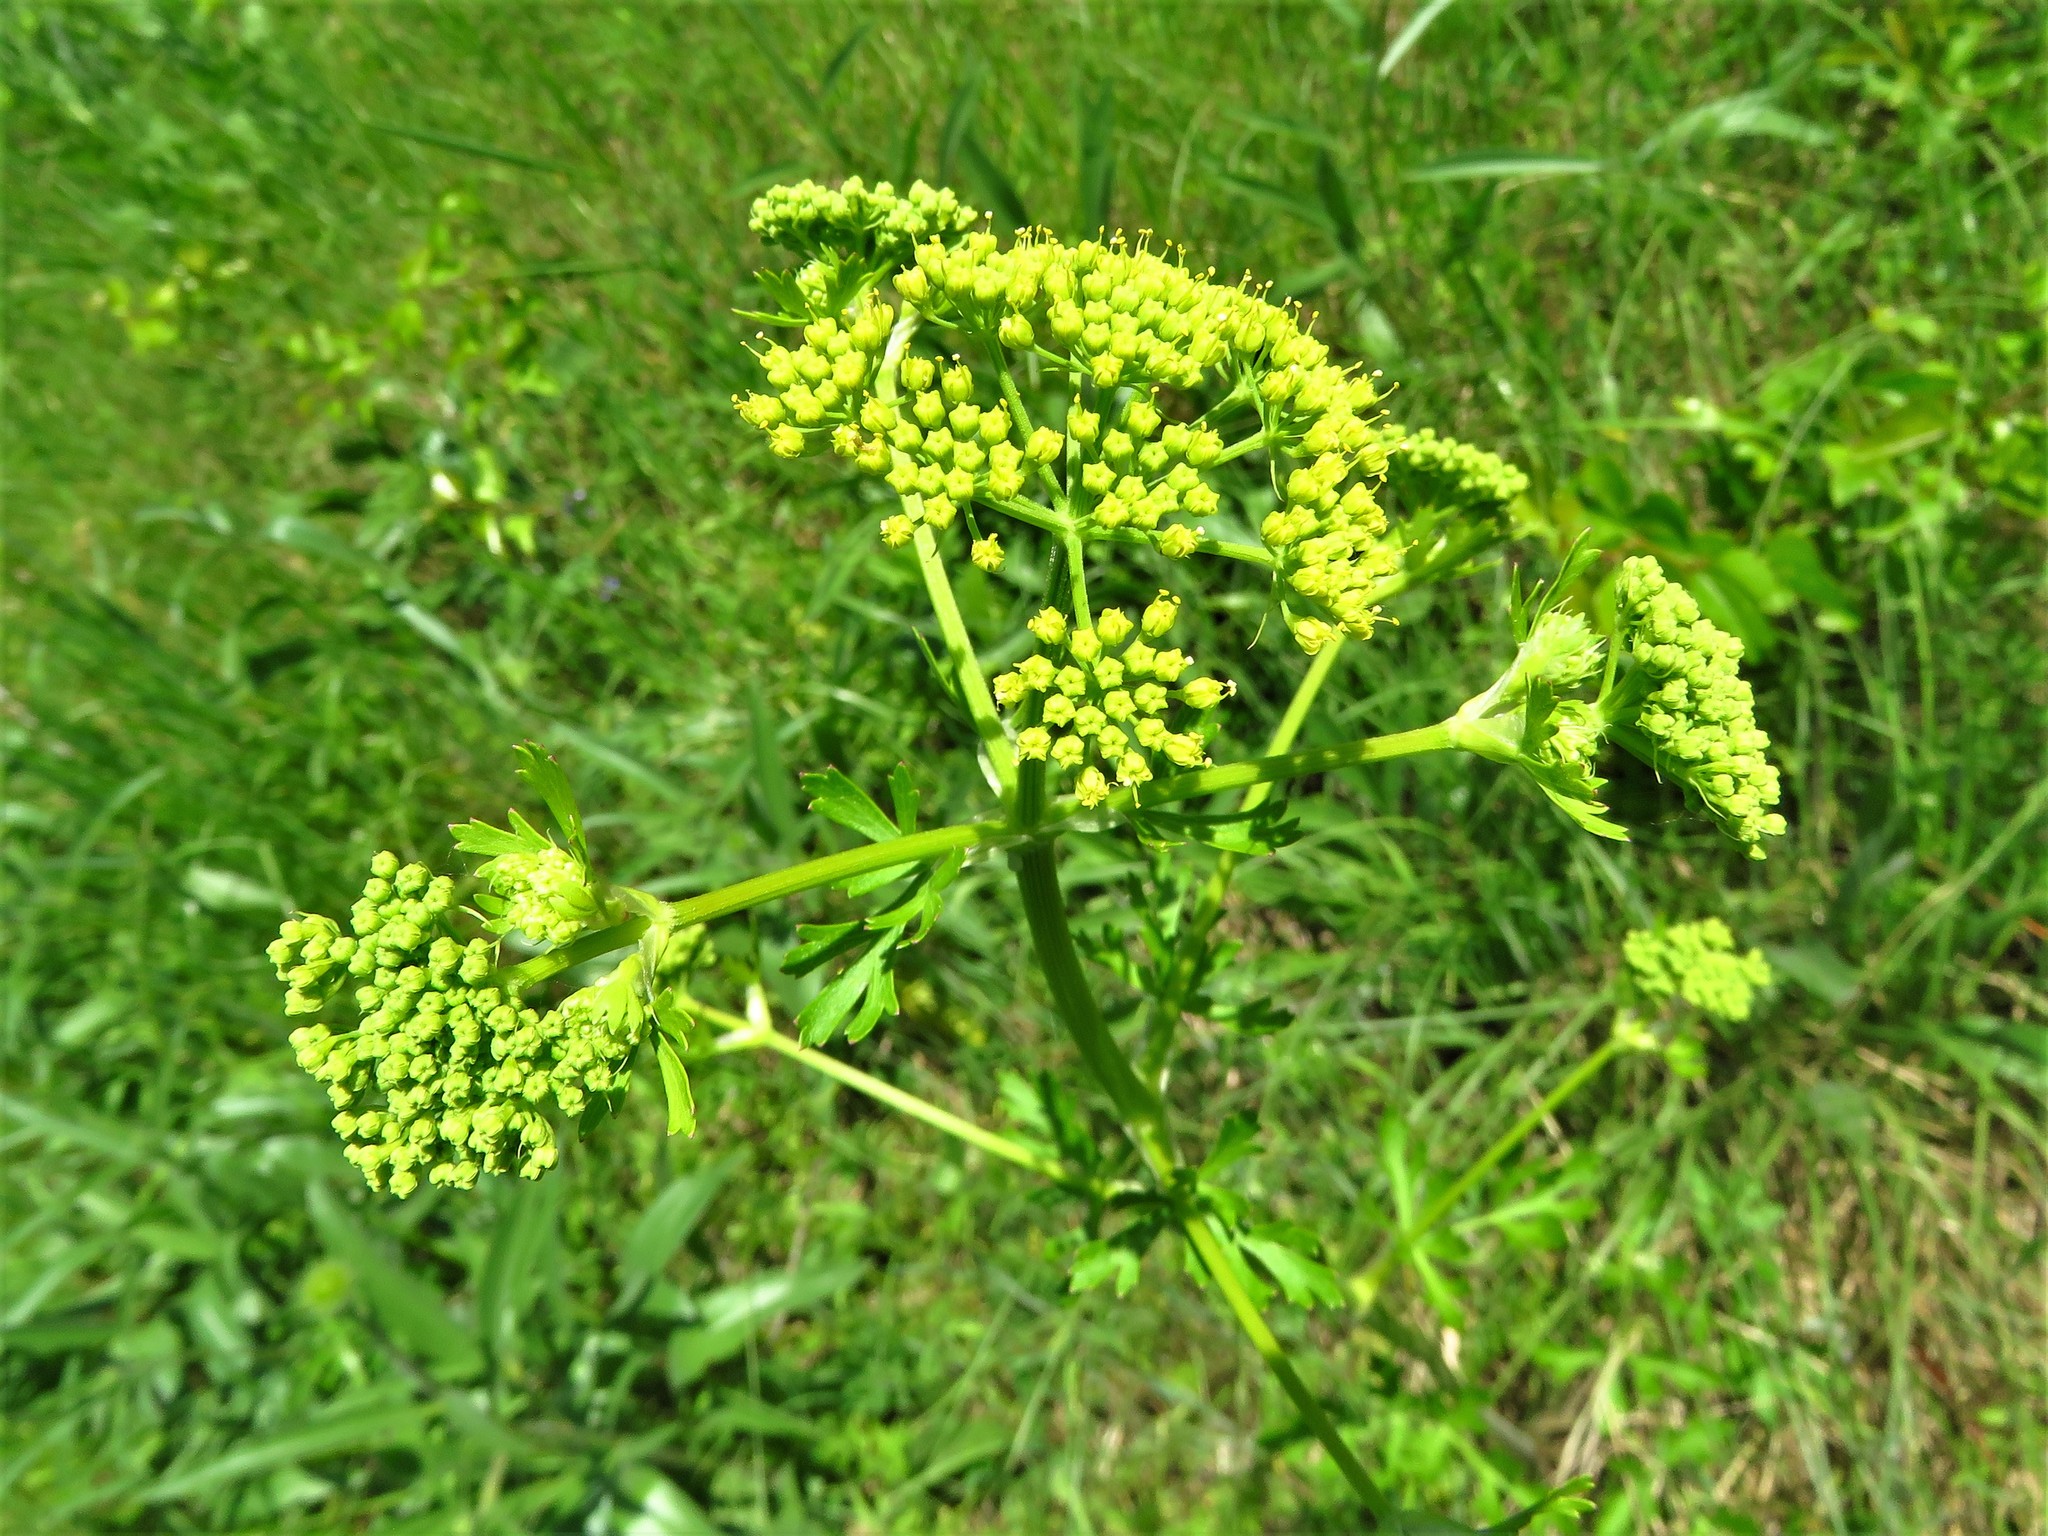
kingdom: Plantae
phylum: Tracheophyta
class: Magnoliopsida
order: Apiales
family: Apiaceae
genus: Polytaenia
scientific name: Polytaenia texana
